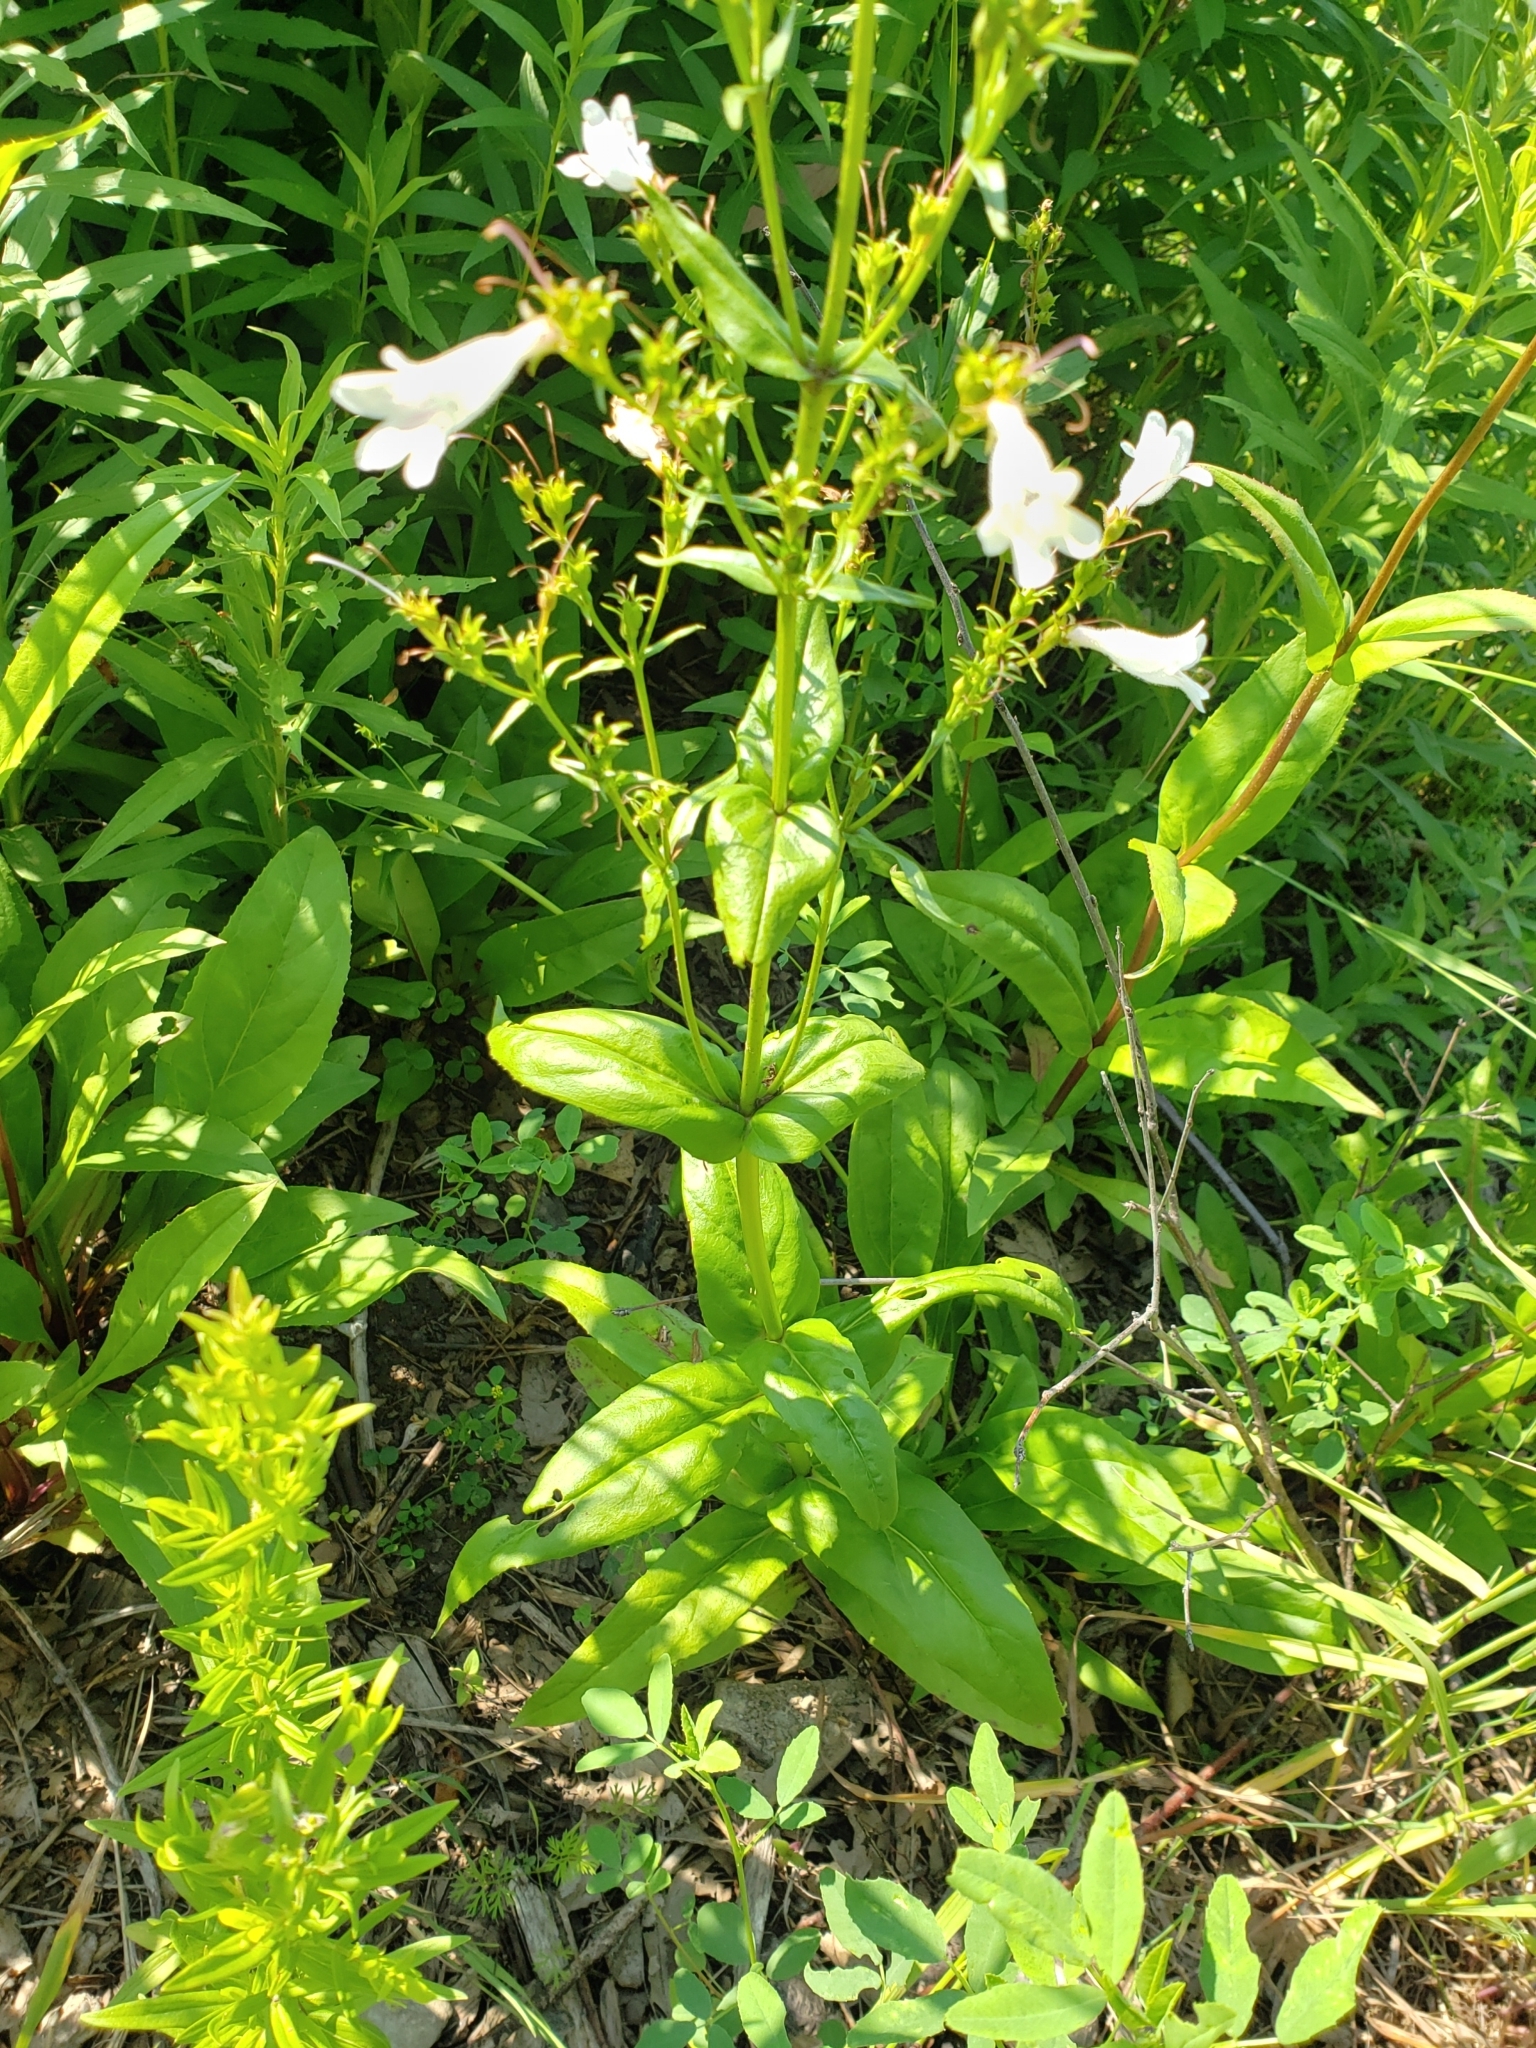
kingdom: Plantae
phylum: Tracheophyta
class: Magnoliopsida
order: Lamiales
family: Plantaginaceae
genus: Penstemon
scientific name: Penstemon digitalis
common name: Foxglove beardtongue
